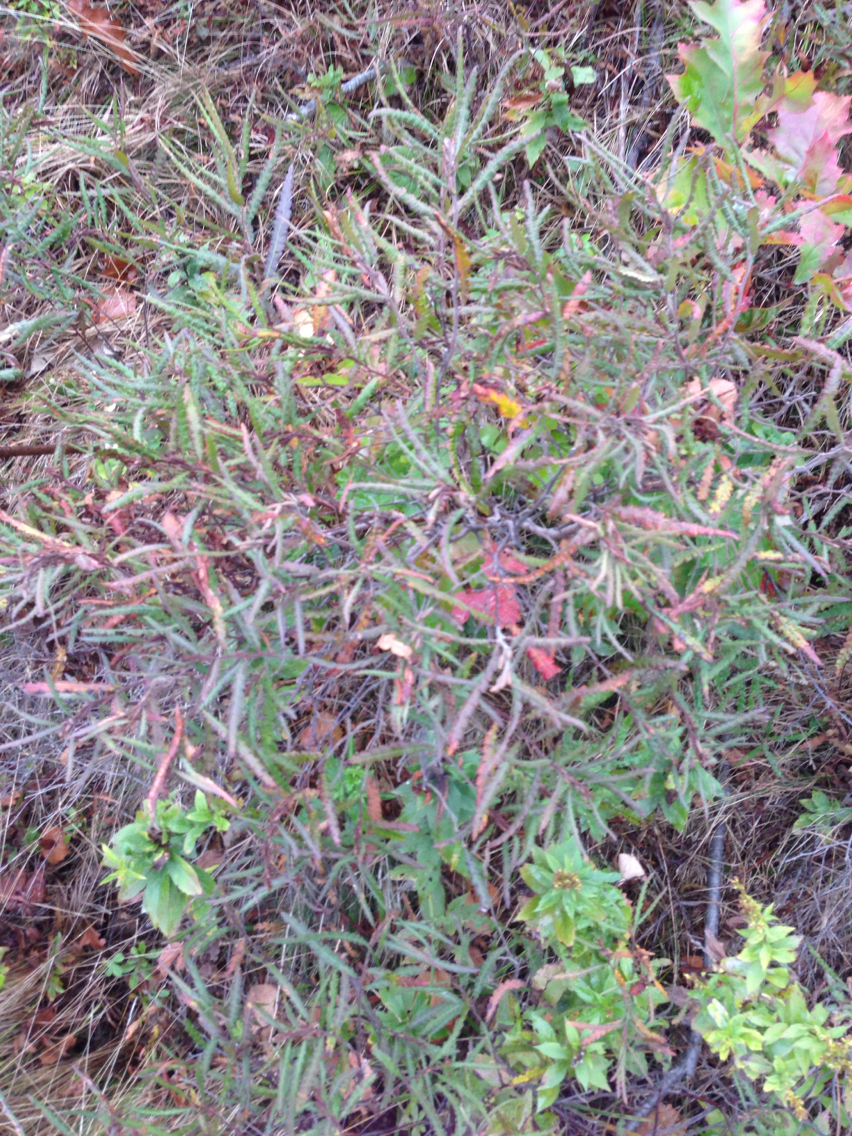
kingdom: Plantae
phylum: Tracheophyta
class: Magnoliopsida
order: Fagales
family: Myricaceae
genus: Comptonia
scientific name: Comptonia peregrina
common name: Sweet-fern
